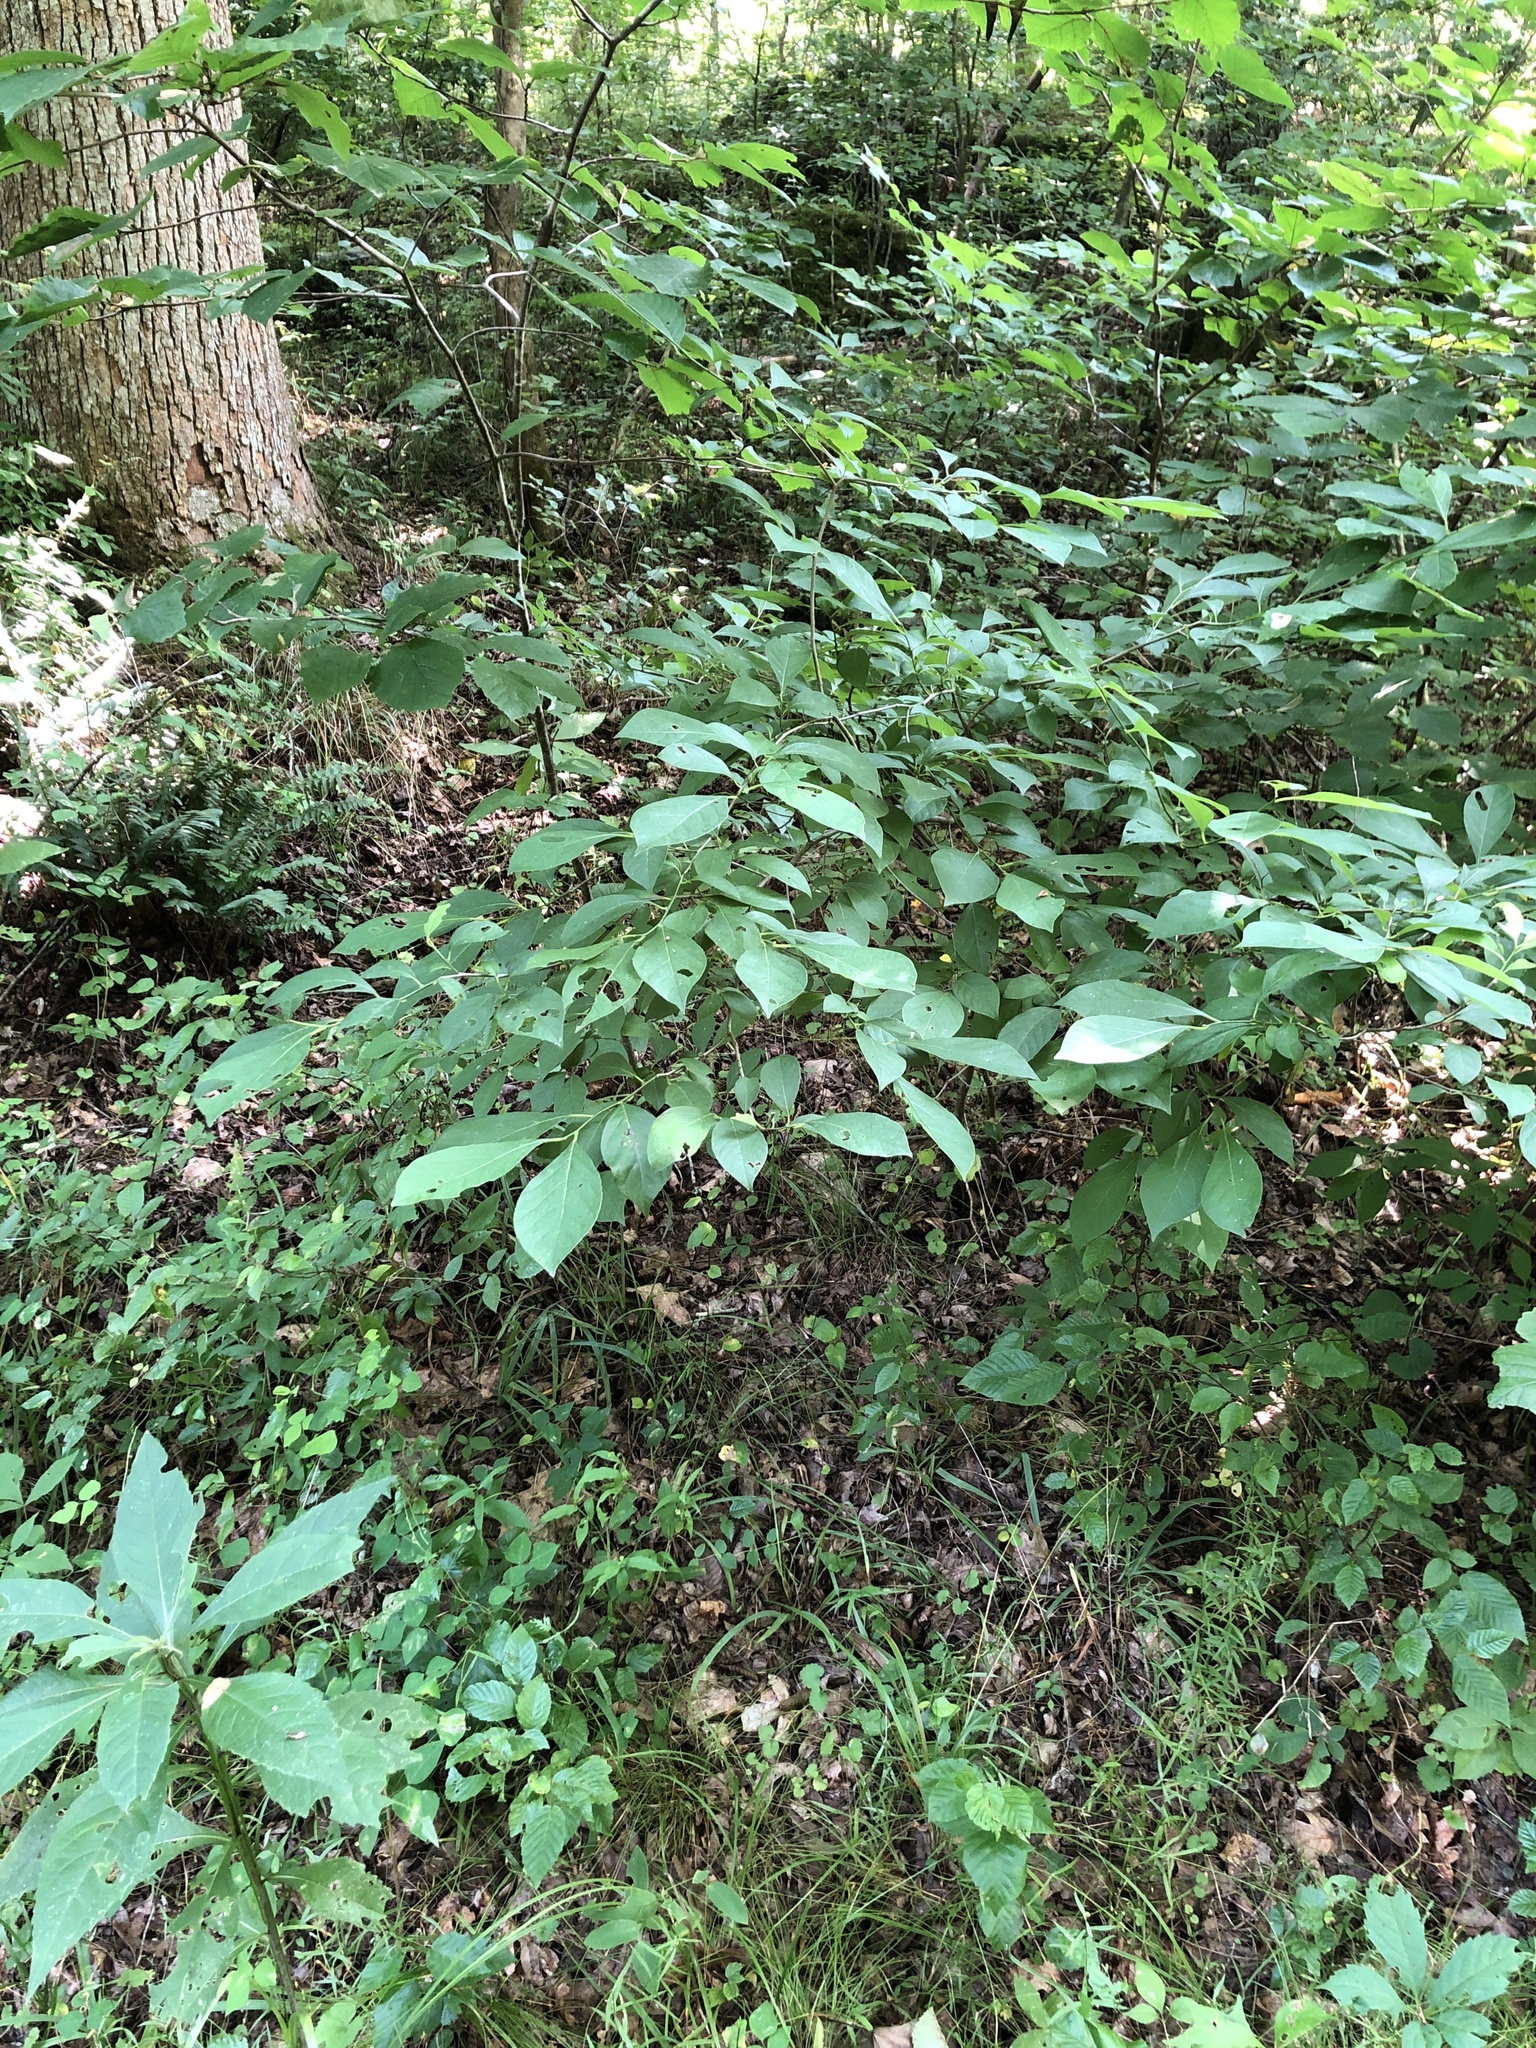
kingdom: Plantae
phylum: Tracheophyta
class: Magnoliopsida
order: Laurales
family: Lauraceae
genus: Lindera
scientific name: Lindera benzoin
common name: Spicebush
